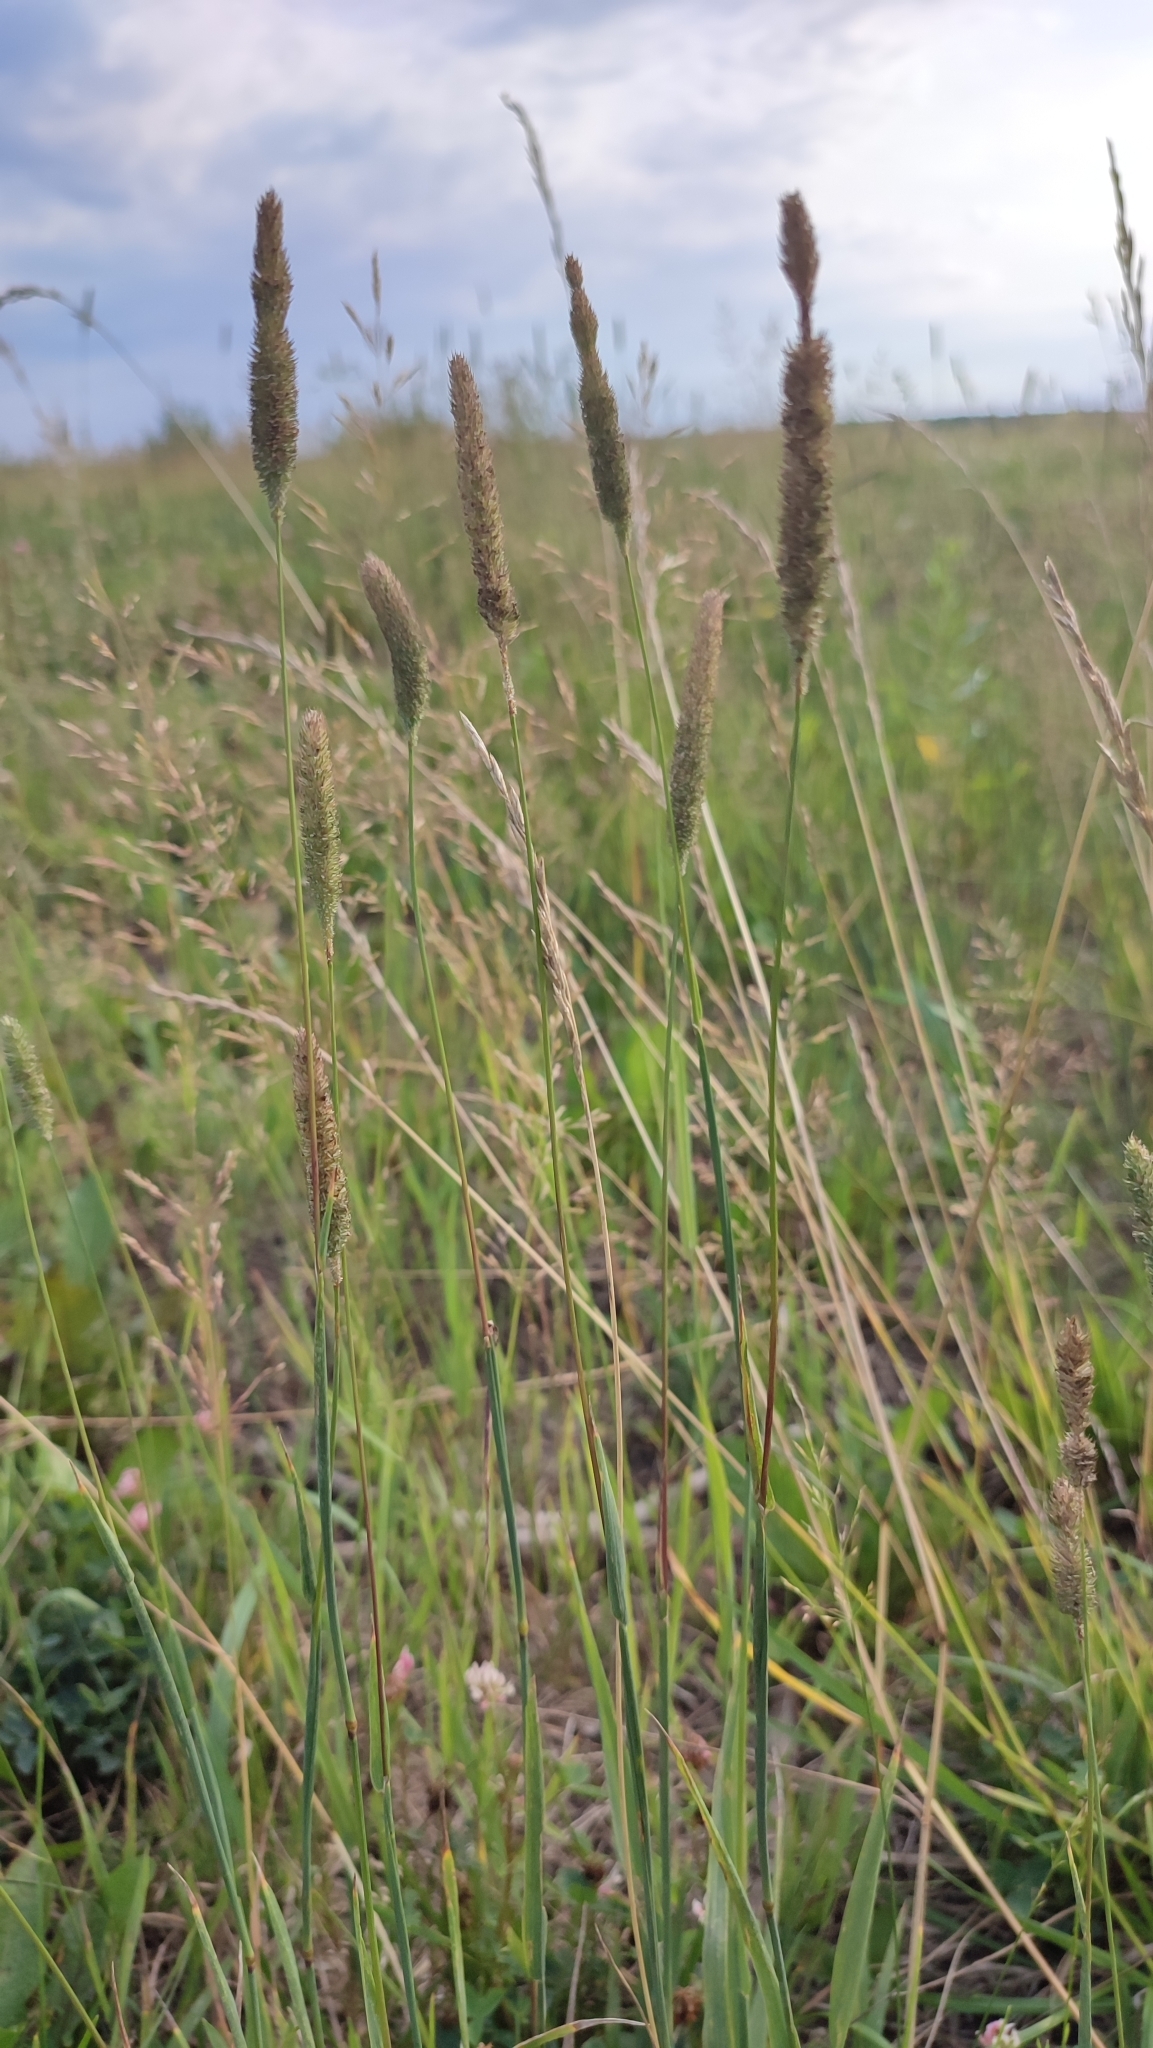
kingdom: Plantae
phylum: Tracheophyta
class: Liliopsida
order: Poales
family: Poaceae
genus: Phleum
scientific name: Phleum pratense
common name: Timothy grass
